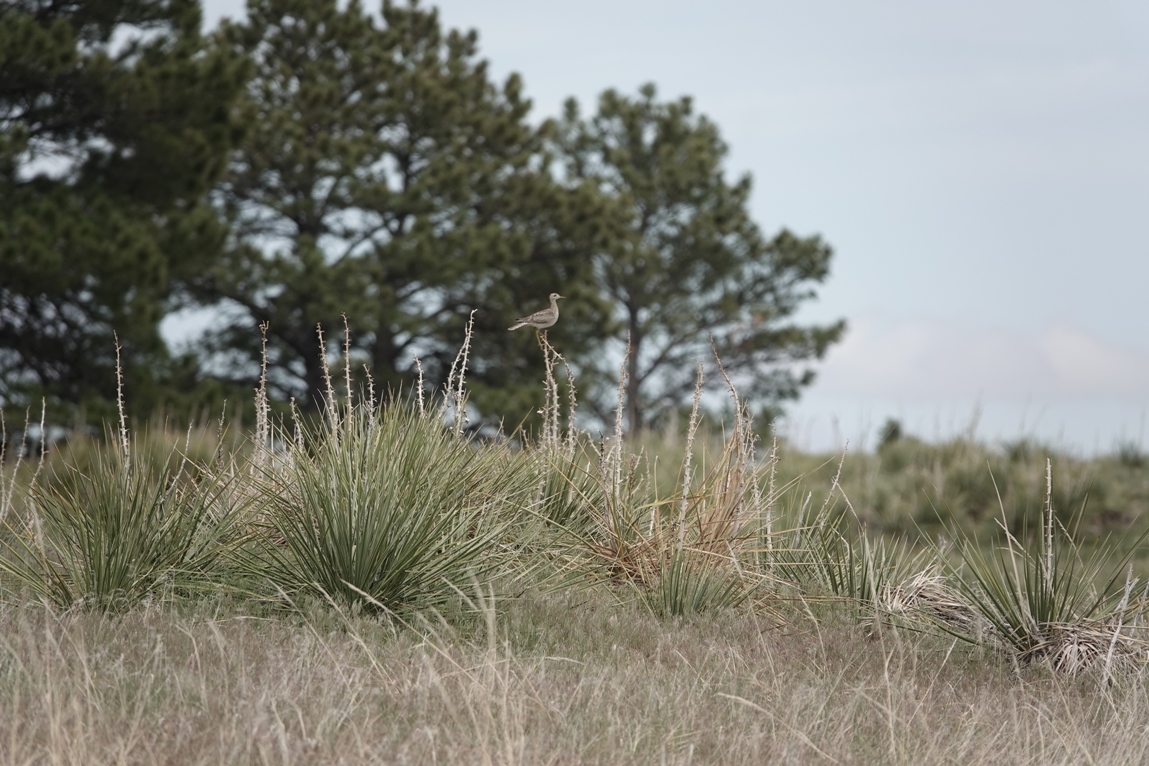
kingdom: Animalia
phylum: Chordata
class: Aves
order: Charadriiformes
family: Scolopacidae
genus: Bartramia
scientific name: Bartramia longicauda
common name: Upland sandpiper
